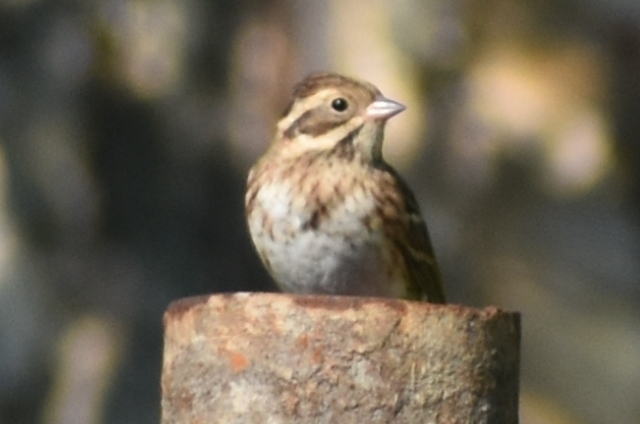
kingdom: Animalia
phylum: Chordata
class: Aves
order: Passeriformes
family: Emberizidae
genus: Emberiza
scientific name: Emberiza rustica
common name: Rustic bunting
